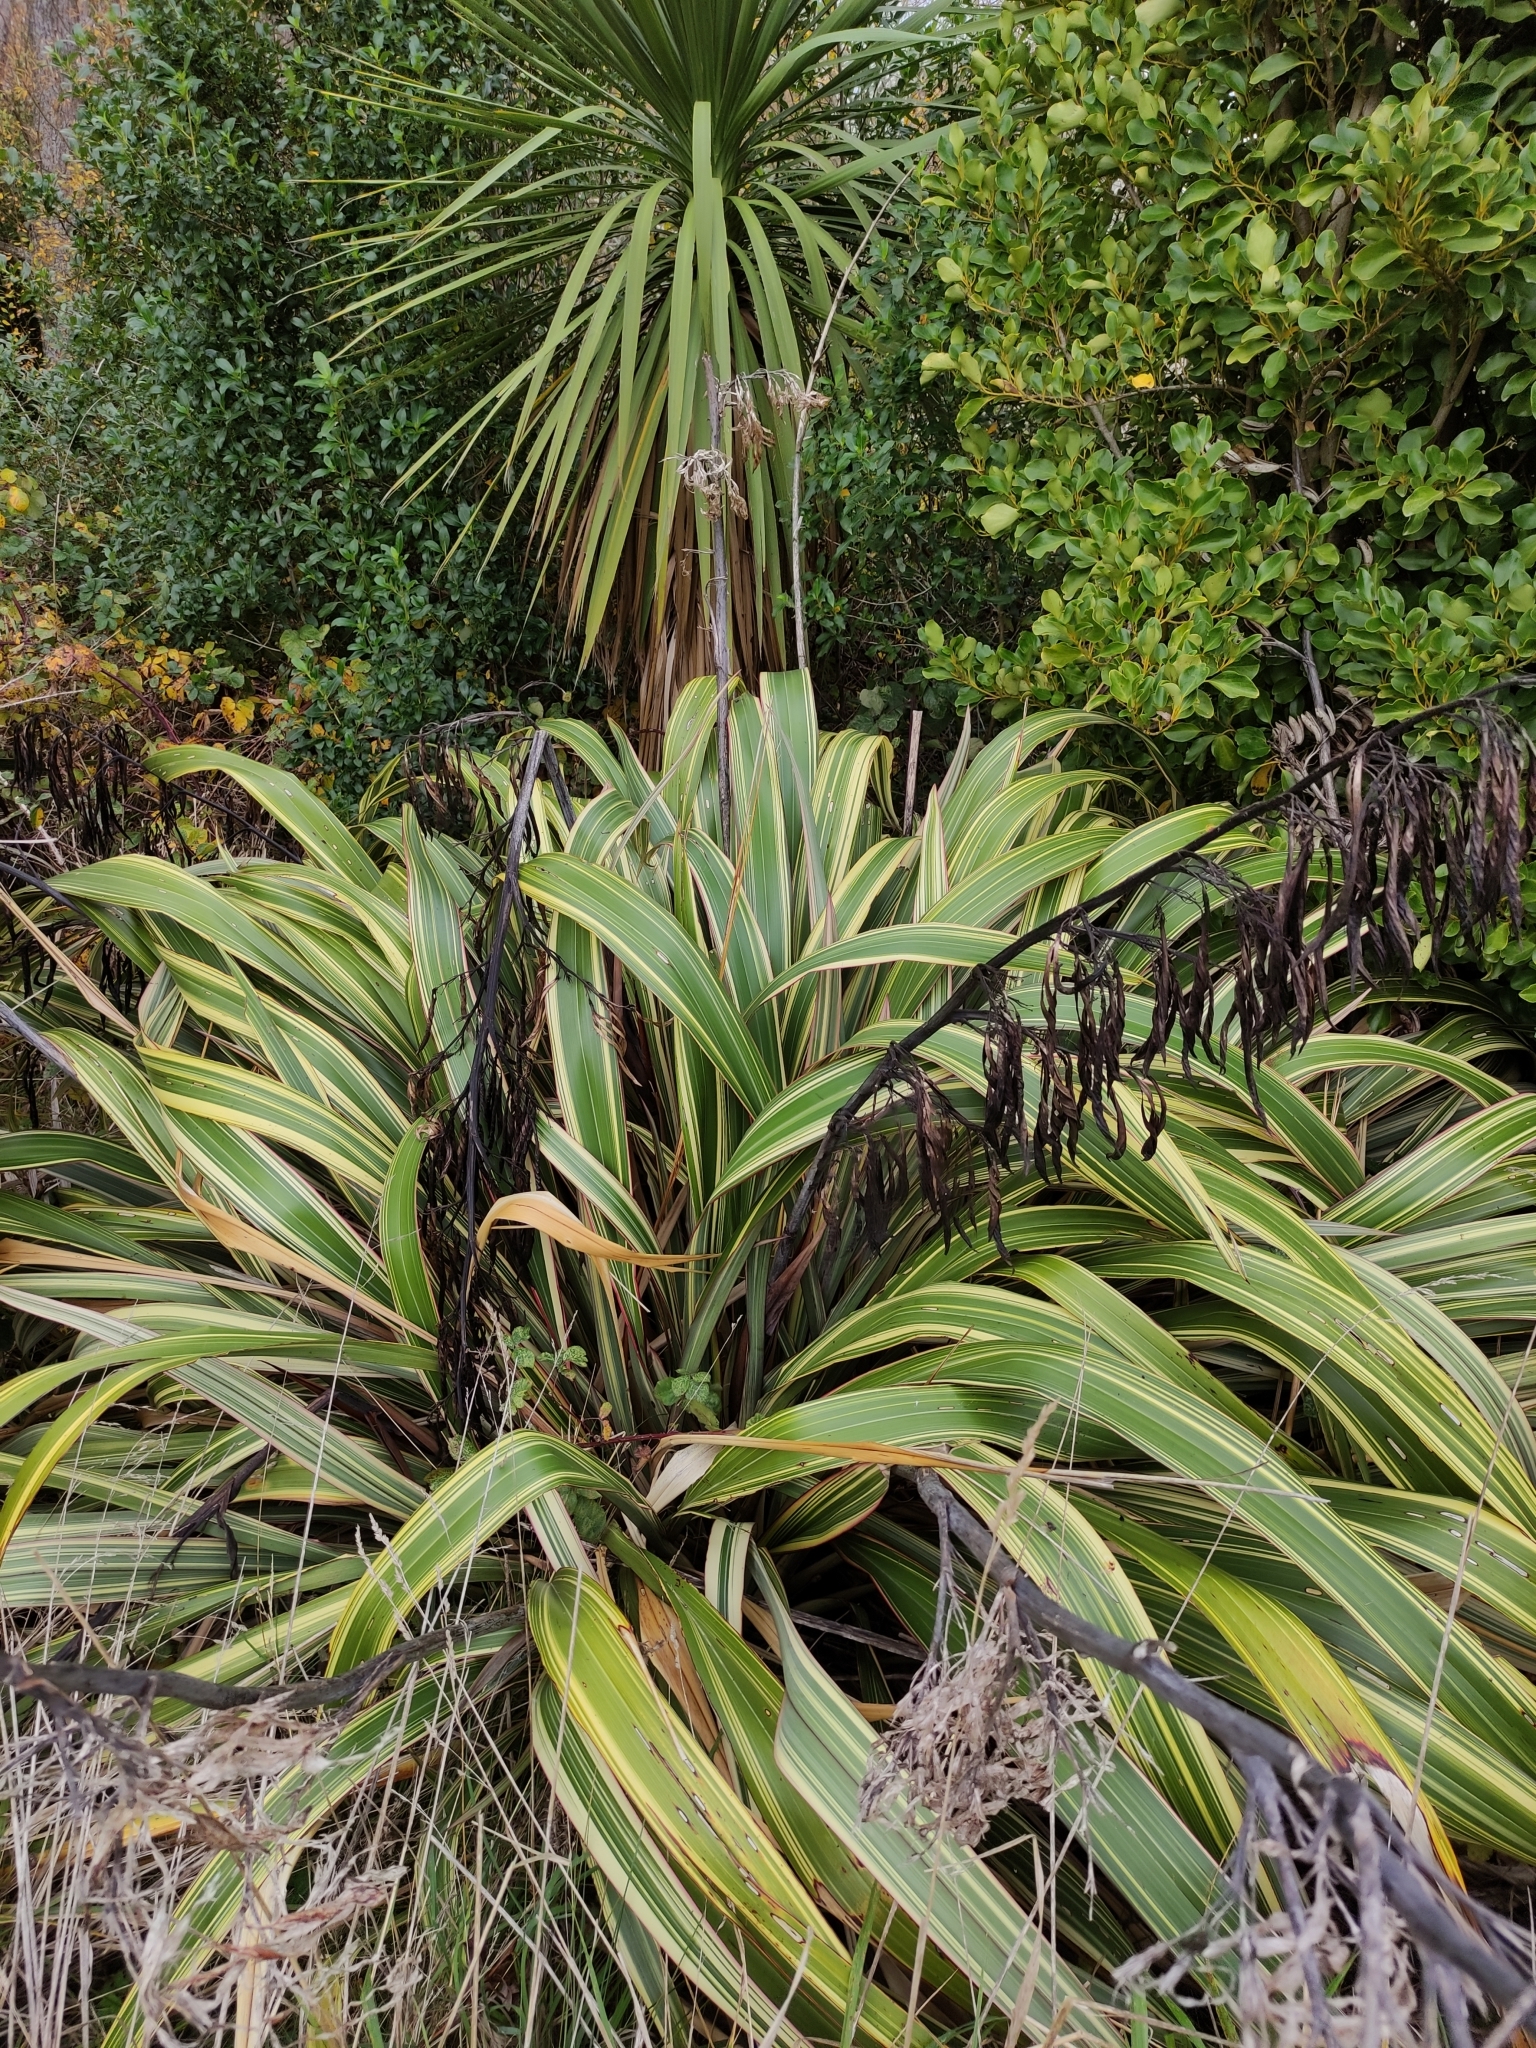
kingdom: Plantae
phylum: Tracheophyta
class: Liliopsida
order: Asparagales
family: Asphodelaceae
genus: Phormium
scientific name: Phormium colensoi
